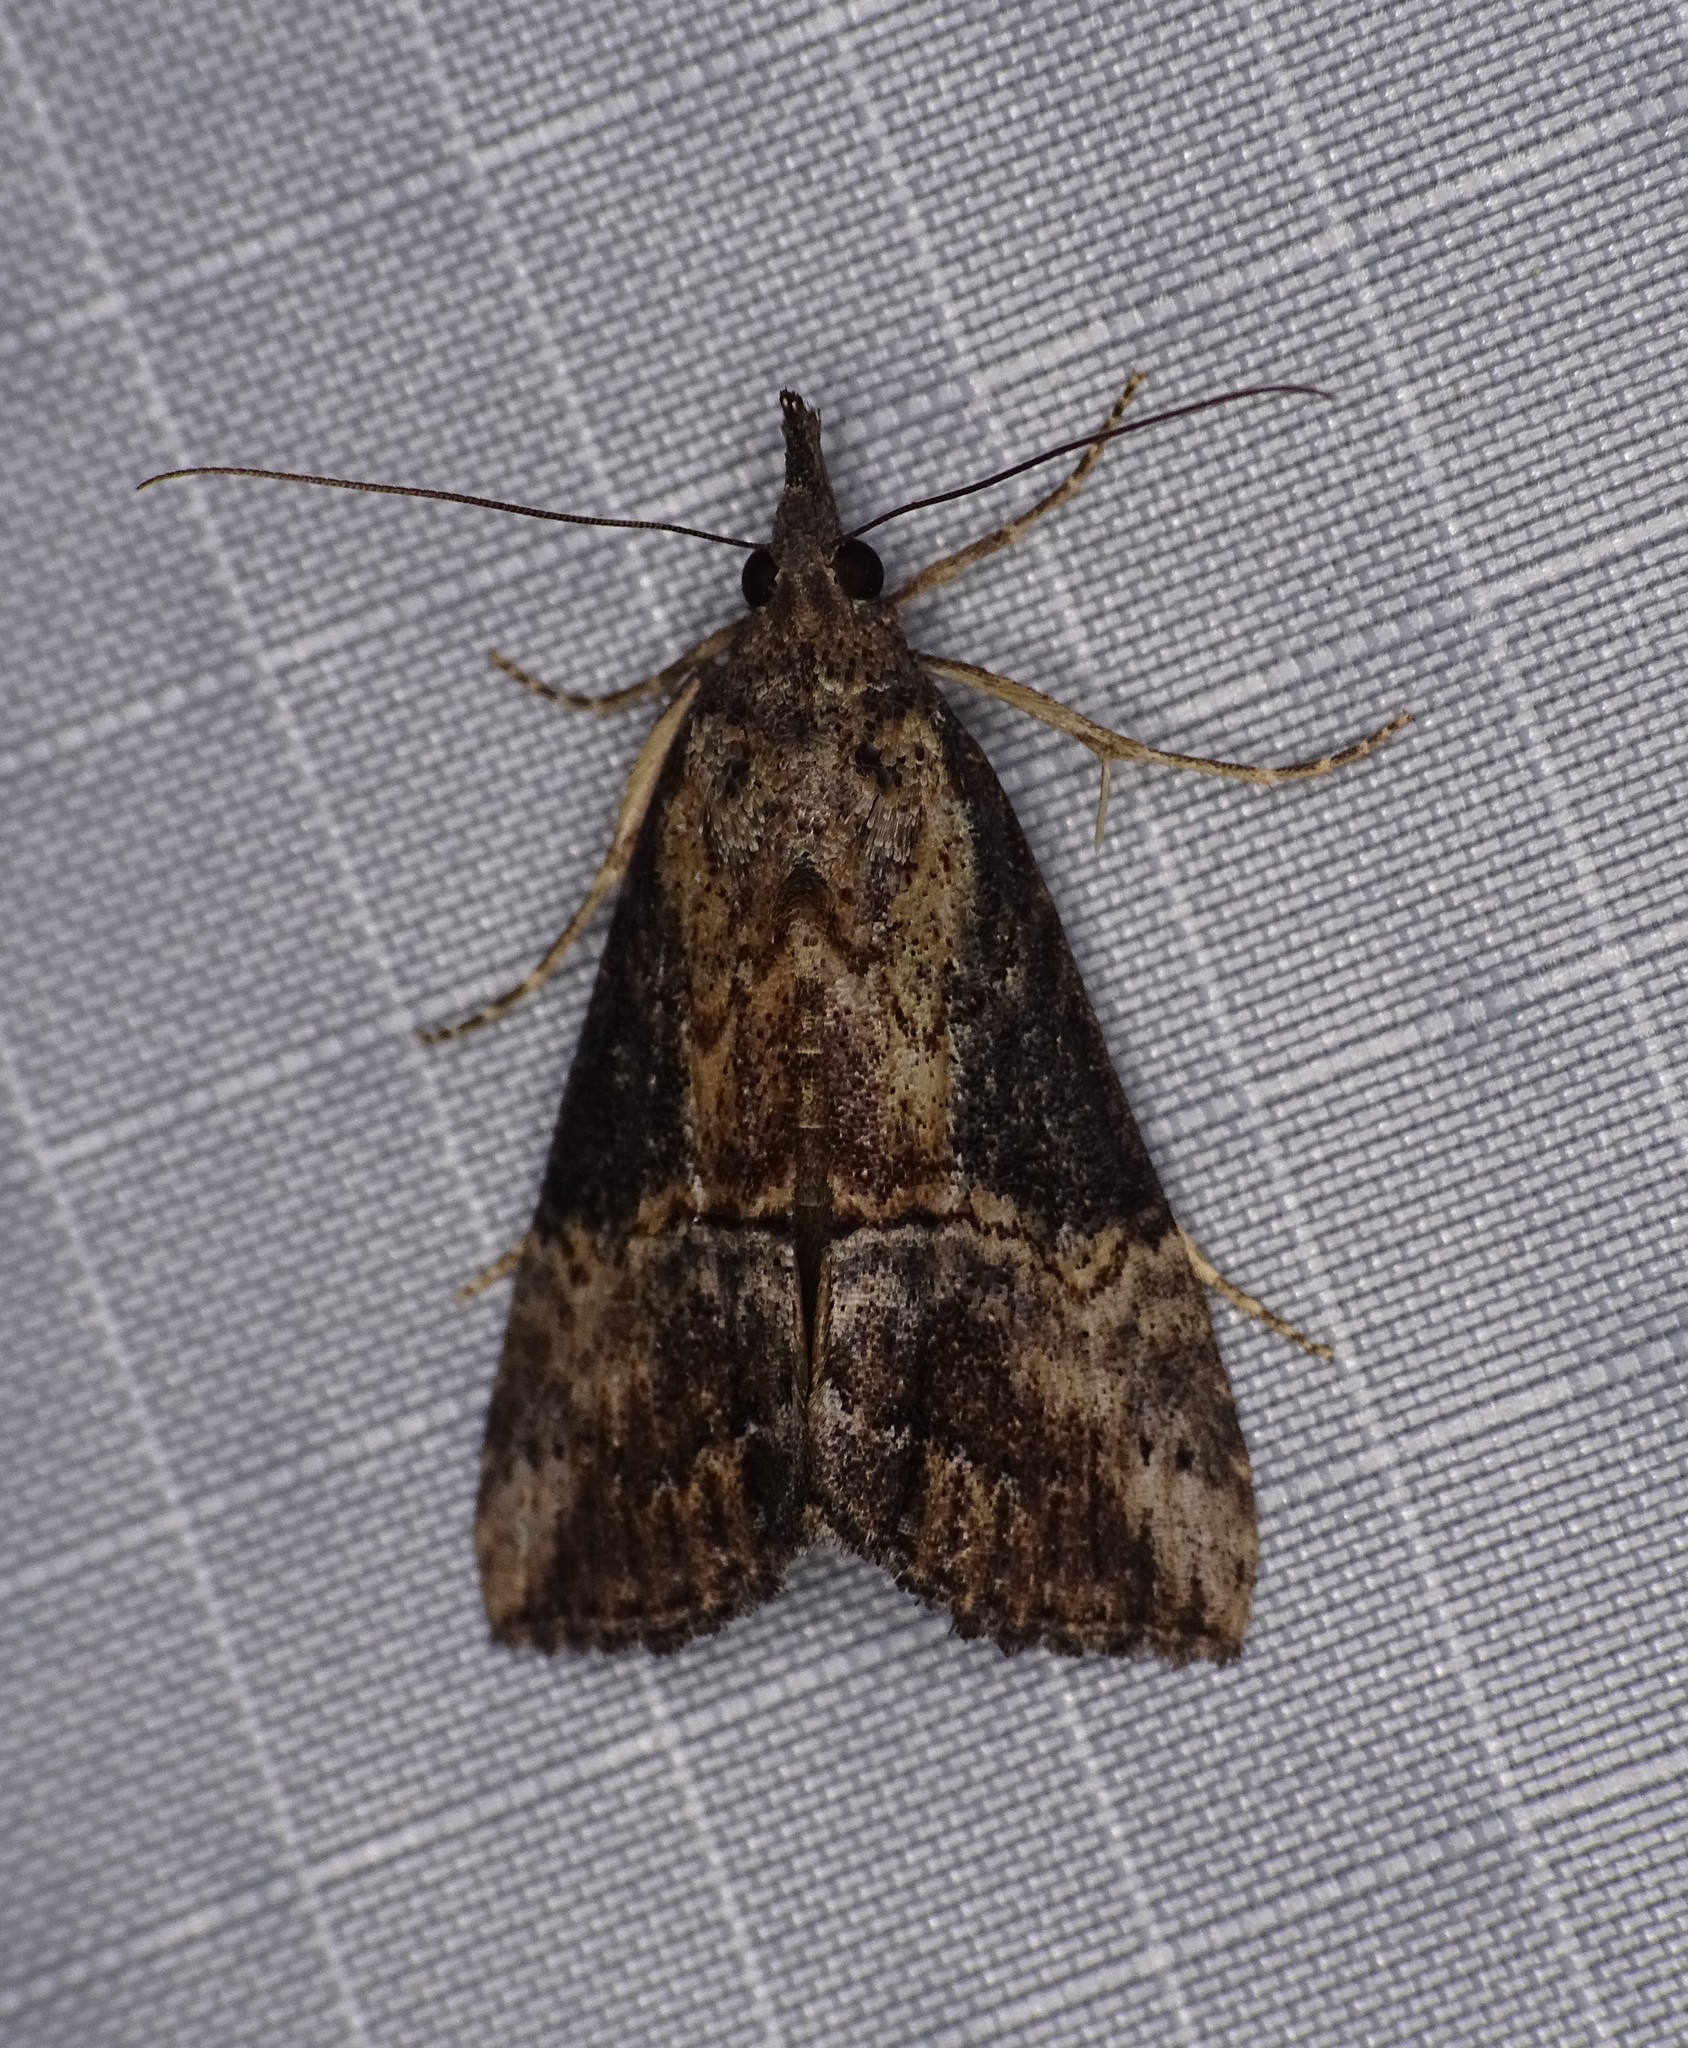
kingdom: Animalia
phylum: Arthropoda
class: Insecta
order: Lepidoptera
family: Erebidae
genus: Hypena
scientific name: Hypena scabra
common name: Green cloverworm
